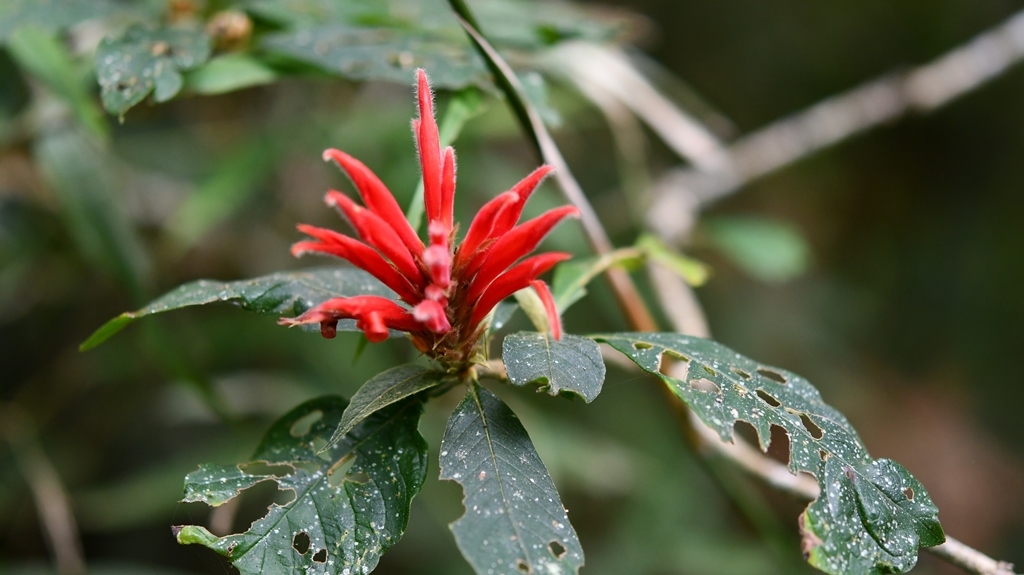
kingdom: Plantae
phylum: Tracheophyta
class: Magnoliopsida
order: Lamiales
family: Acanthaceae
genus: Aphelandra
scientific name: Aphelandra scabra
